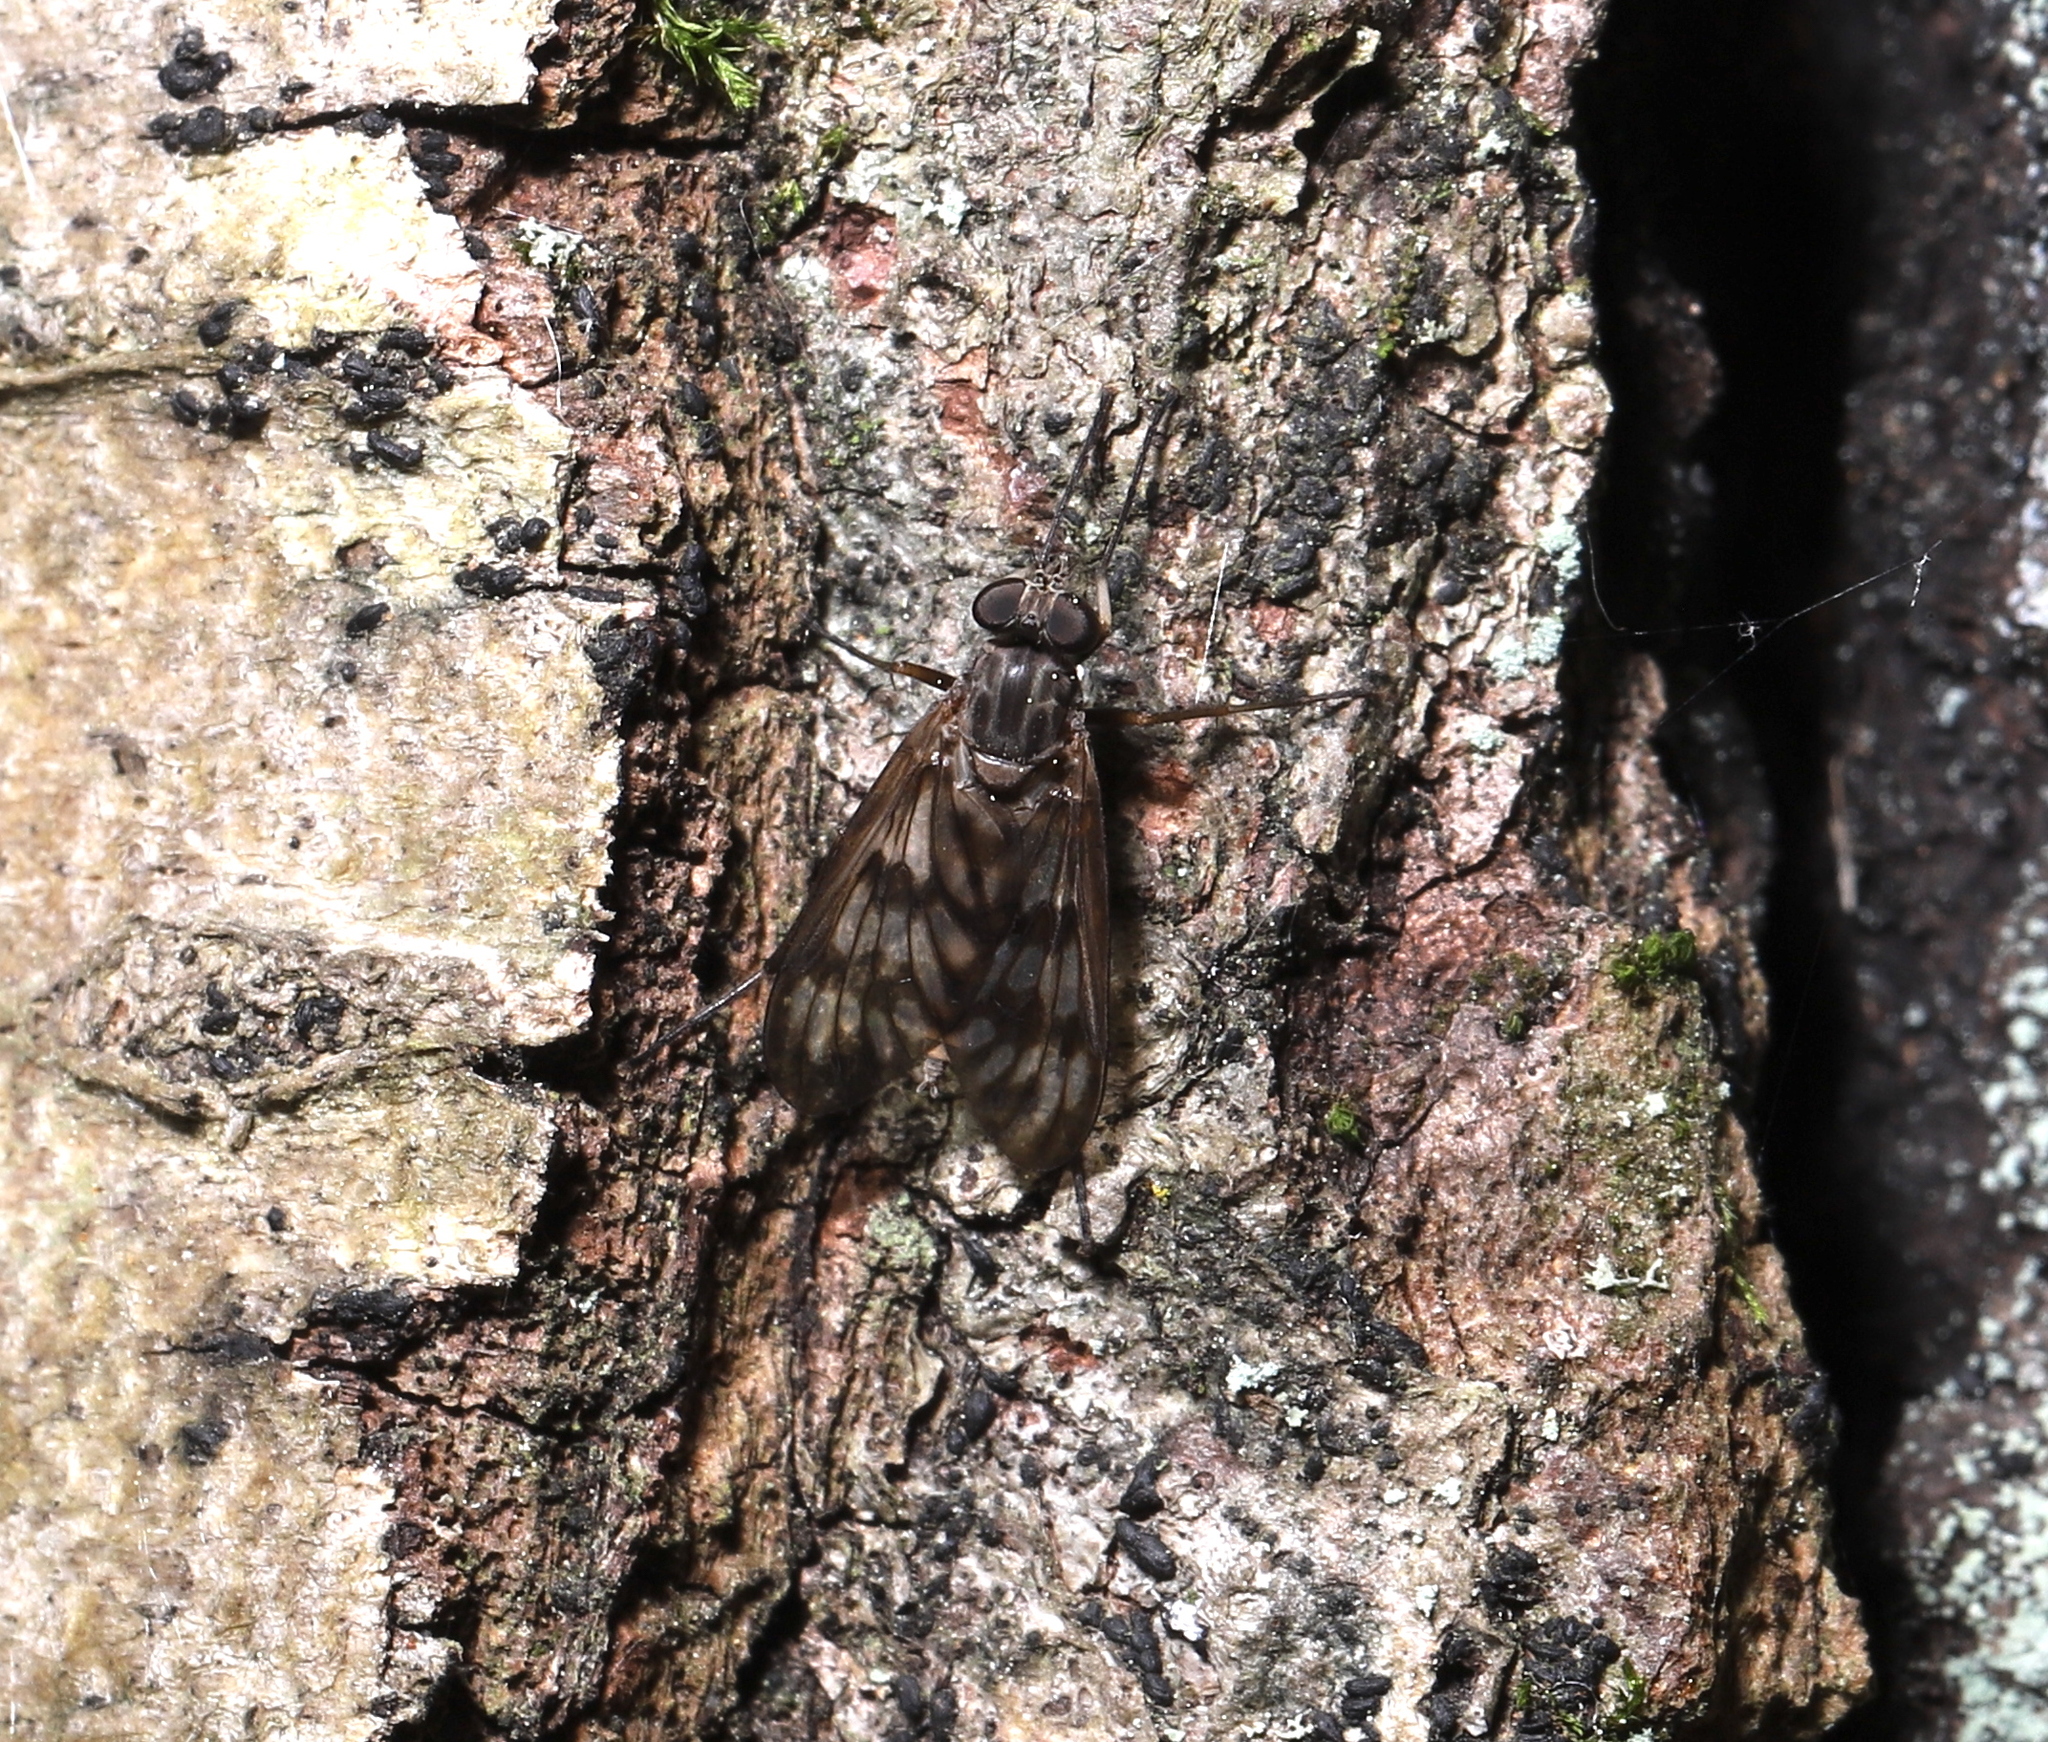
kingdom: Animalia
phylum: Arthropoda
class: Insecta
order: Diptera
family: Rhagionidae
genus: Rhagio
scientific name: Rhagio mystaceus
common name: Common snipe fly
